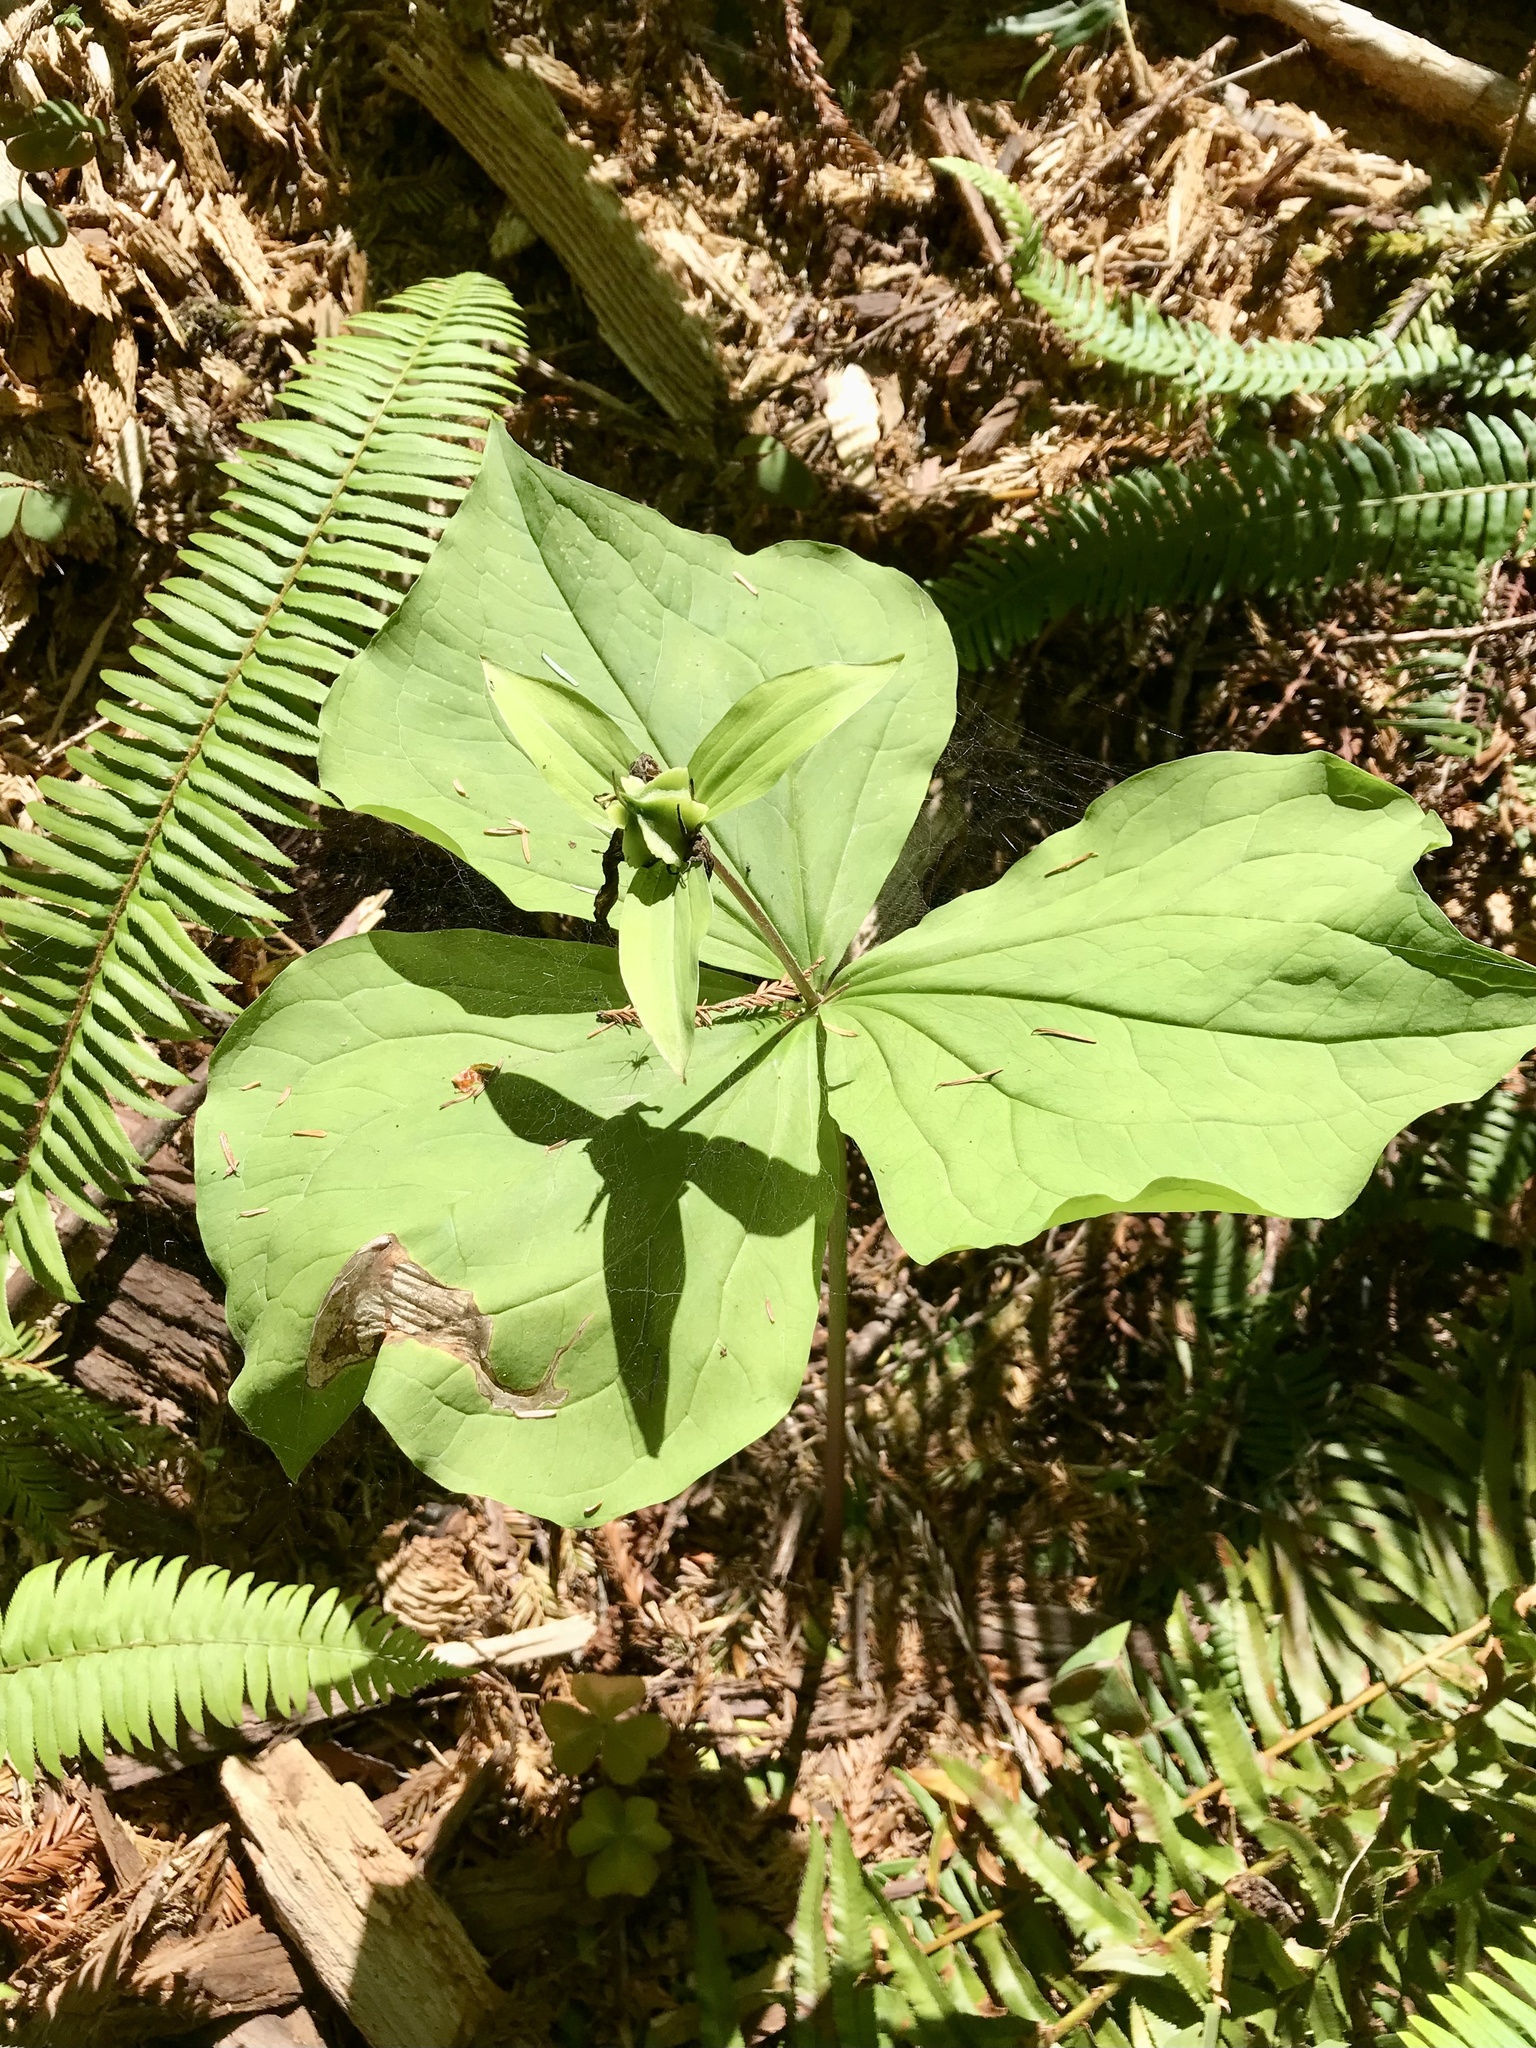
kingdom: Plantae
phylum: Tracheophyta
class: Liliopsida
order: Liliales
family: Melanthiaceae
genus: Trillium
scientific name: Trillium ovatum
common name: Pacific trillium
